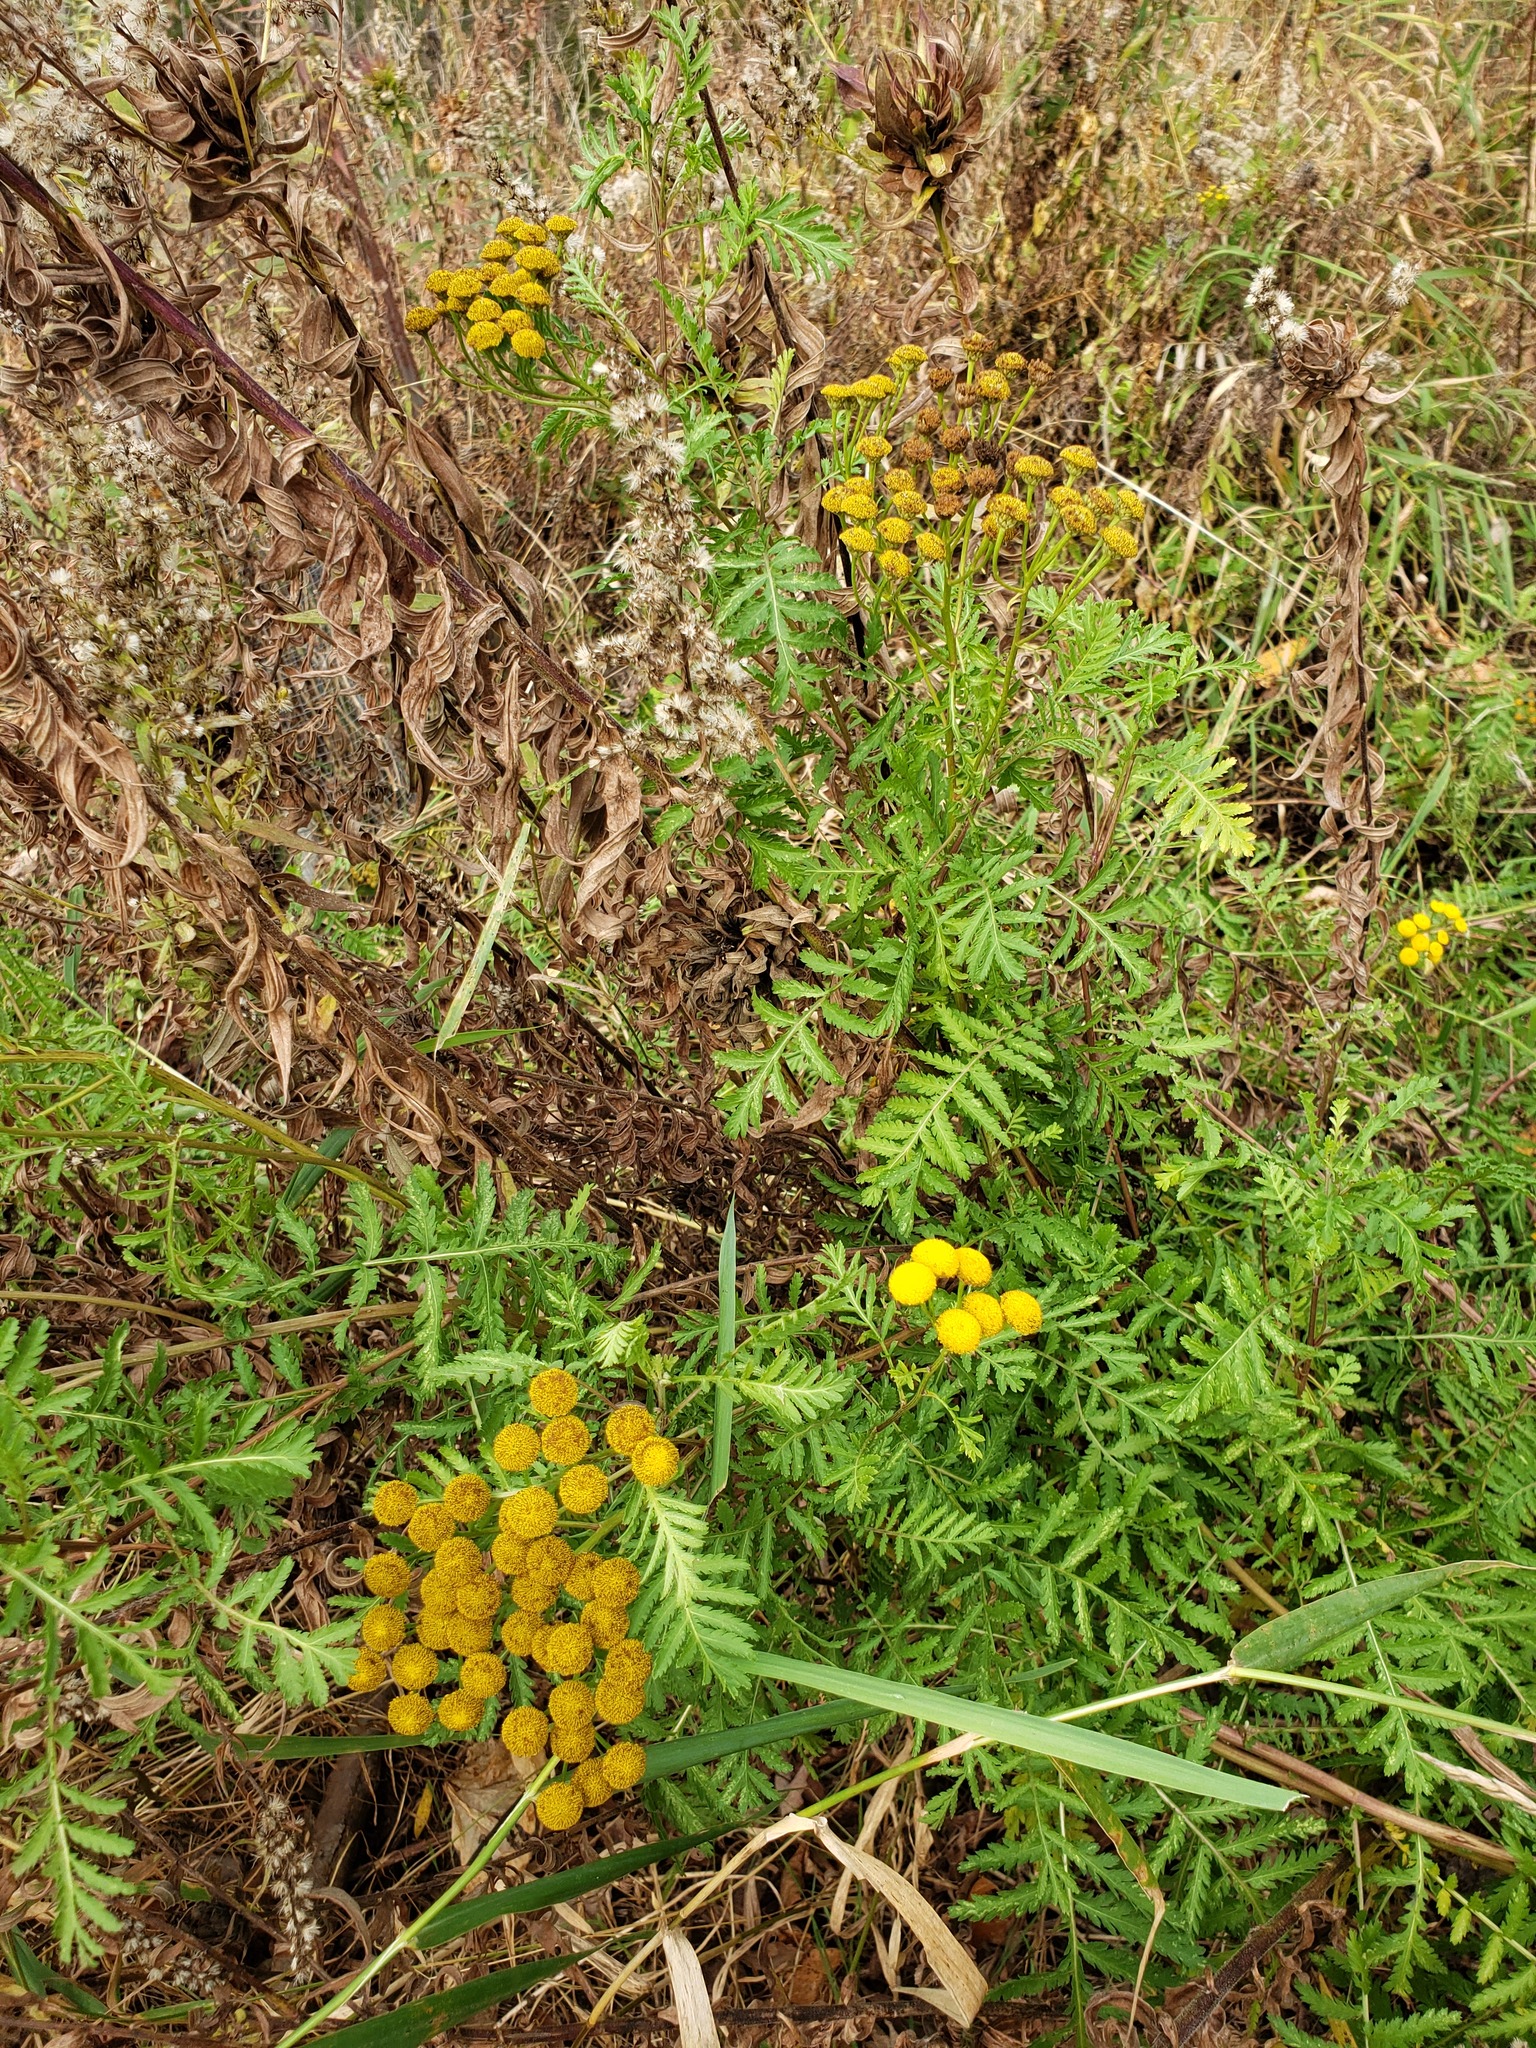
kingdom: Plantae
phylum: Tracheophyta
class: Magnoliopsida
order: Asterales
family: Asteraceae
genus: Tanacetum
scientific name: Tanacetum vulgare
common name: Common tansy
